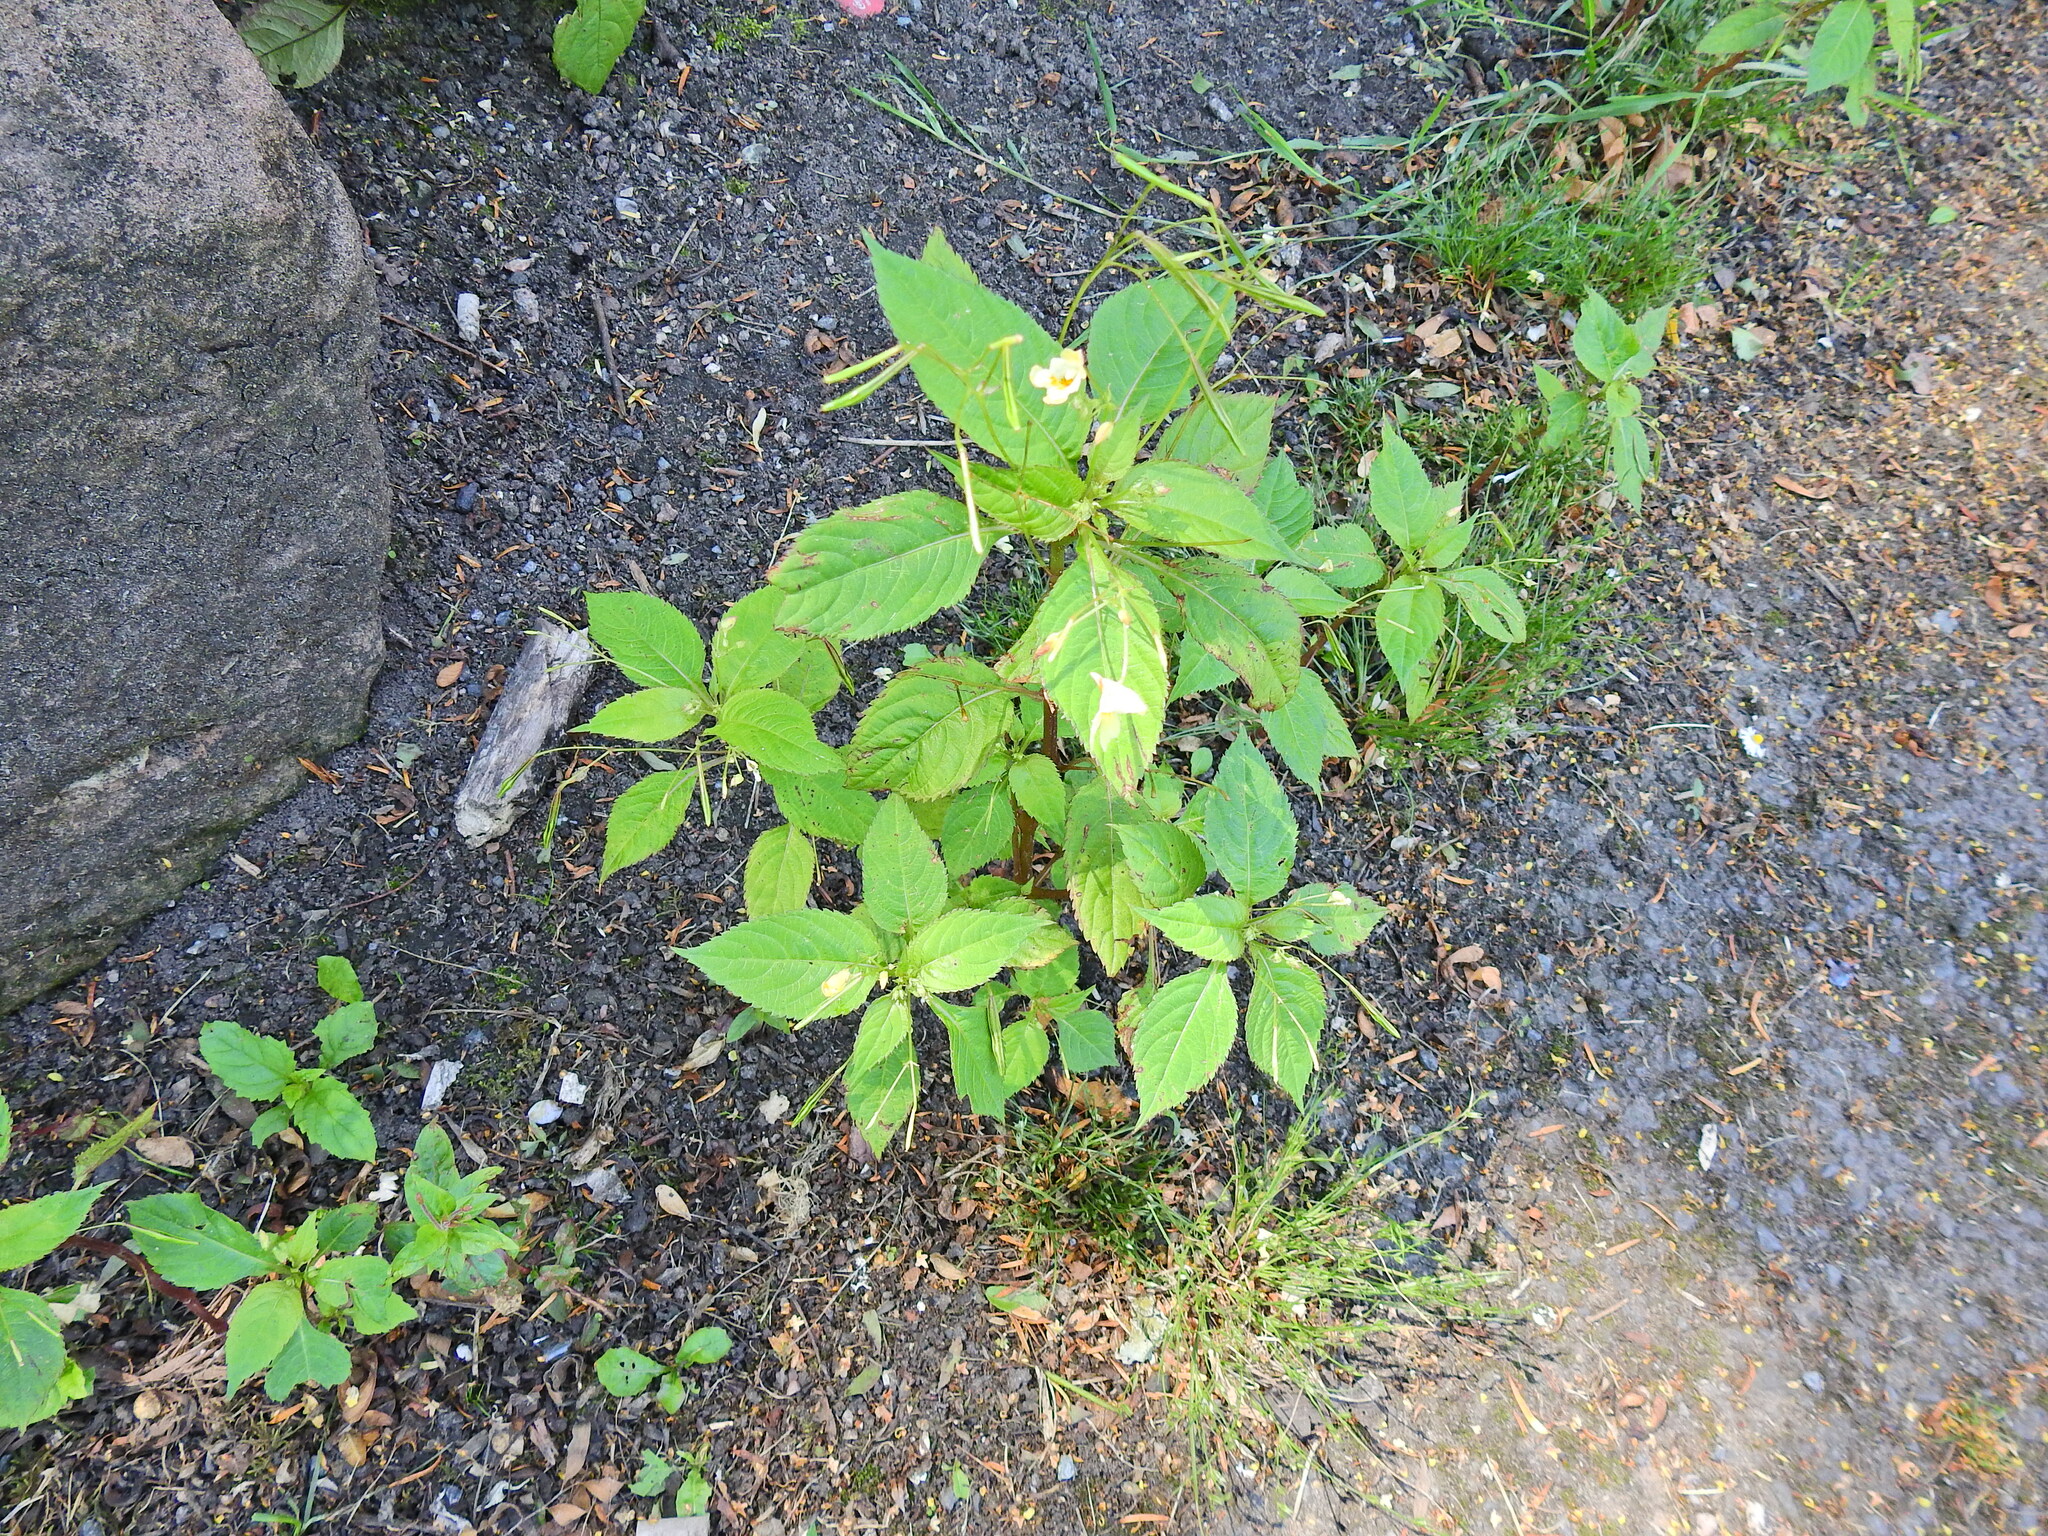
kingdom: Plantae
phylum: Tracheophyta
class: Magnoliopsida
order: Ericales
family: Balsaminaceae
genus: Impatiens
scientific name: Impatiens parviflora
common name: Small balsam
